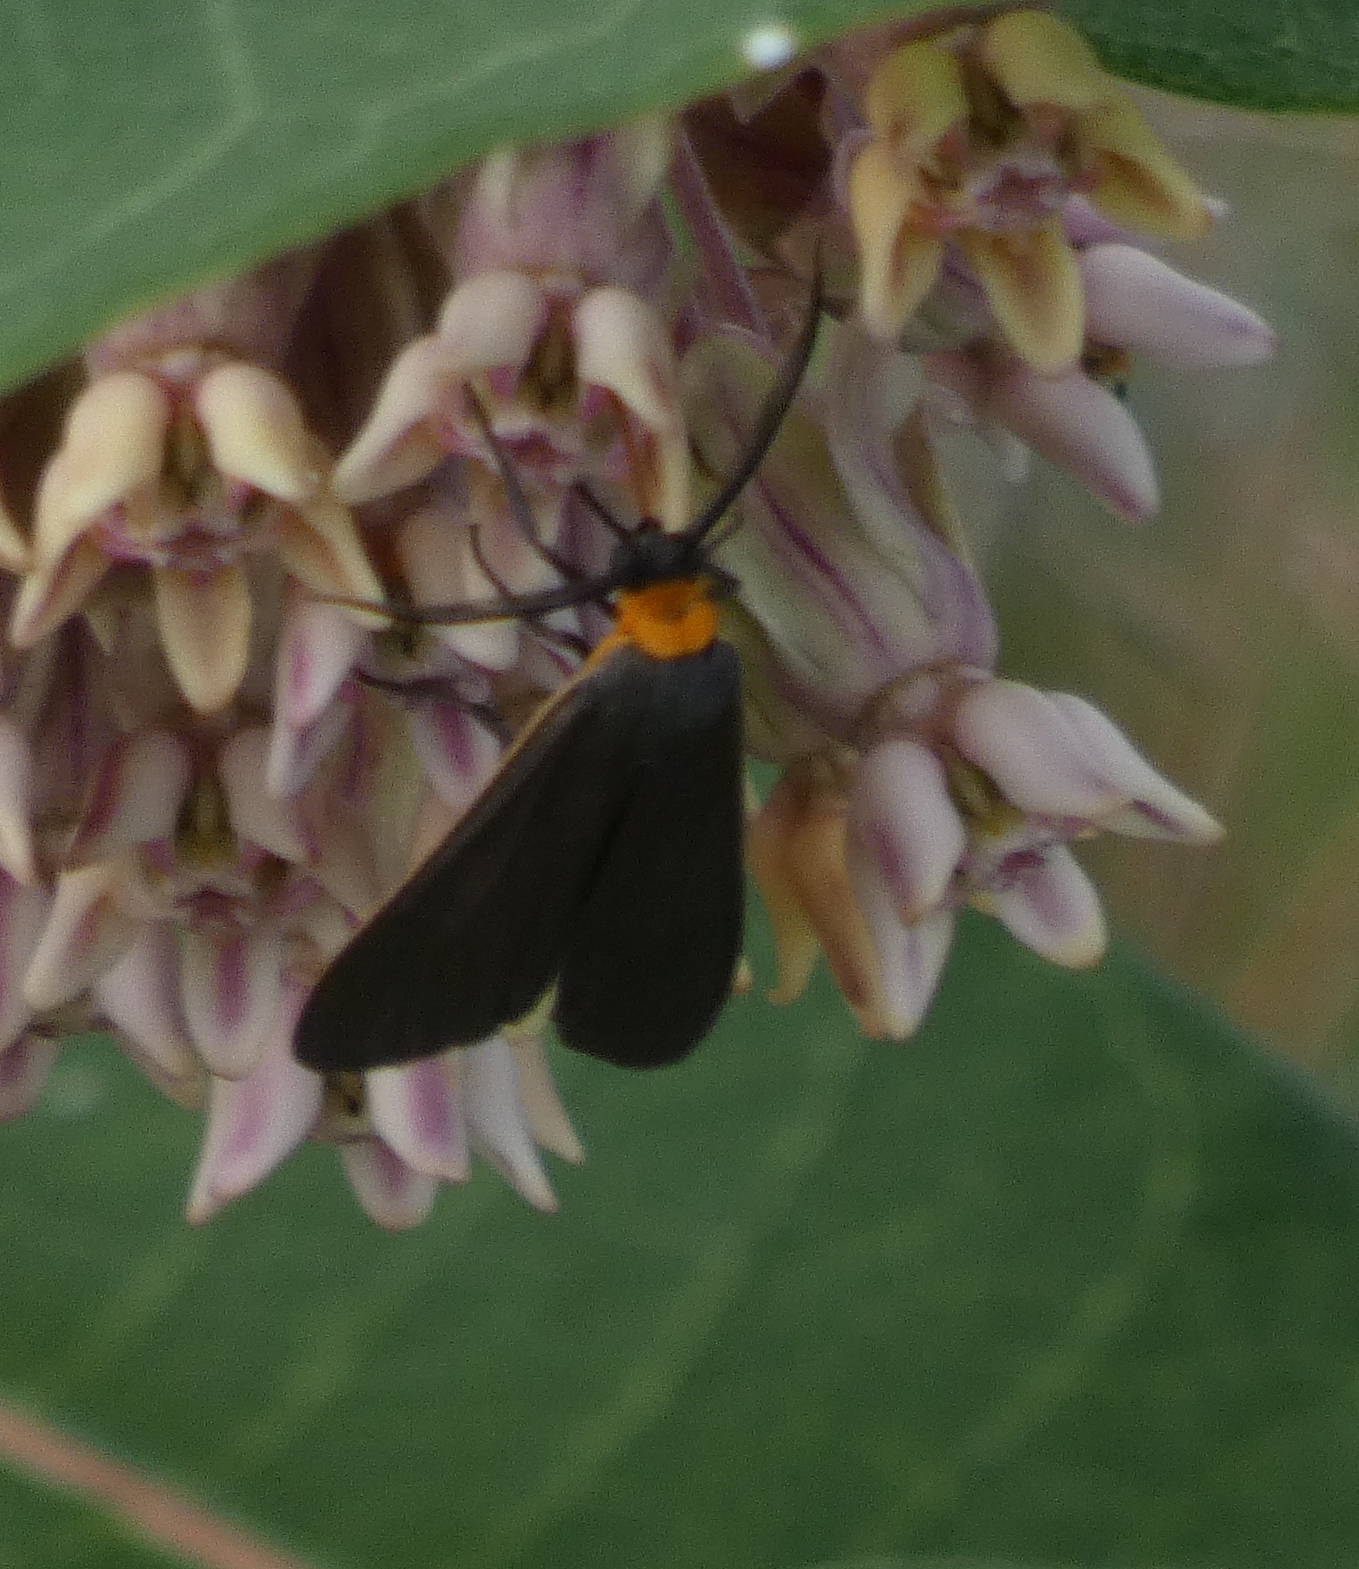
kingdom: Animalia
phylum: Arthropoda
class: Insecta
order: Lepidoptera
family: Erebidae
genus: Cisseps
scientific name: Cisseps fulvicollis
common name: Yellow-collared scape moth
